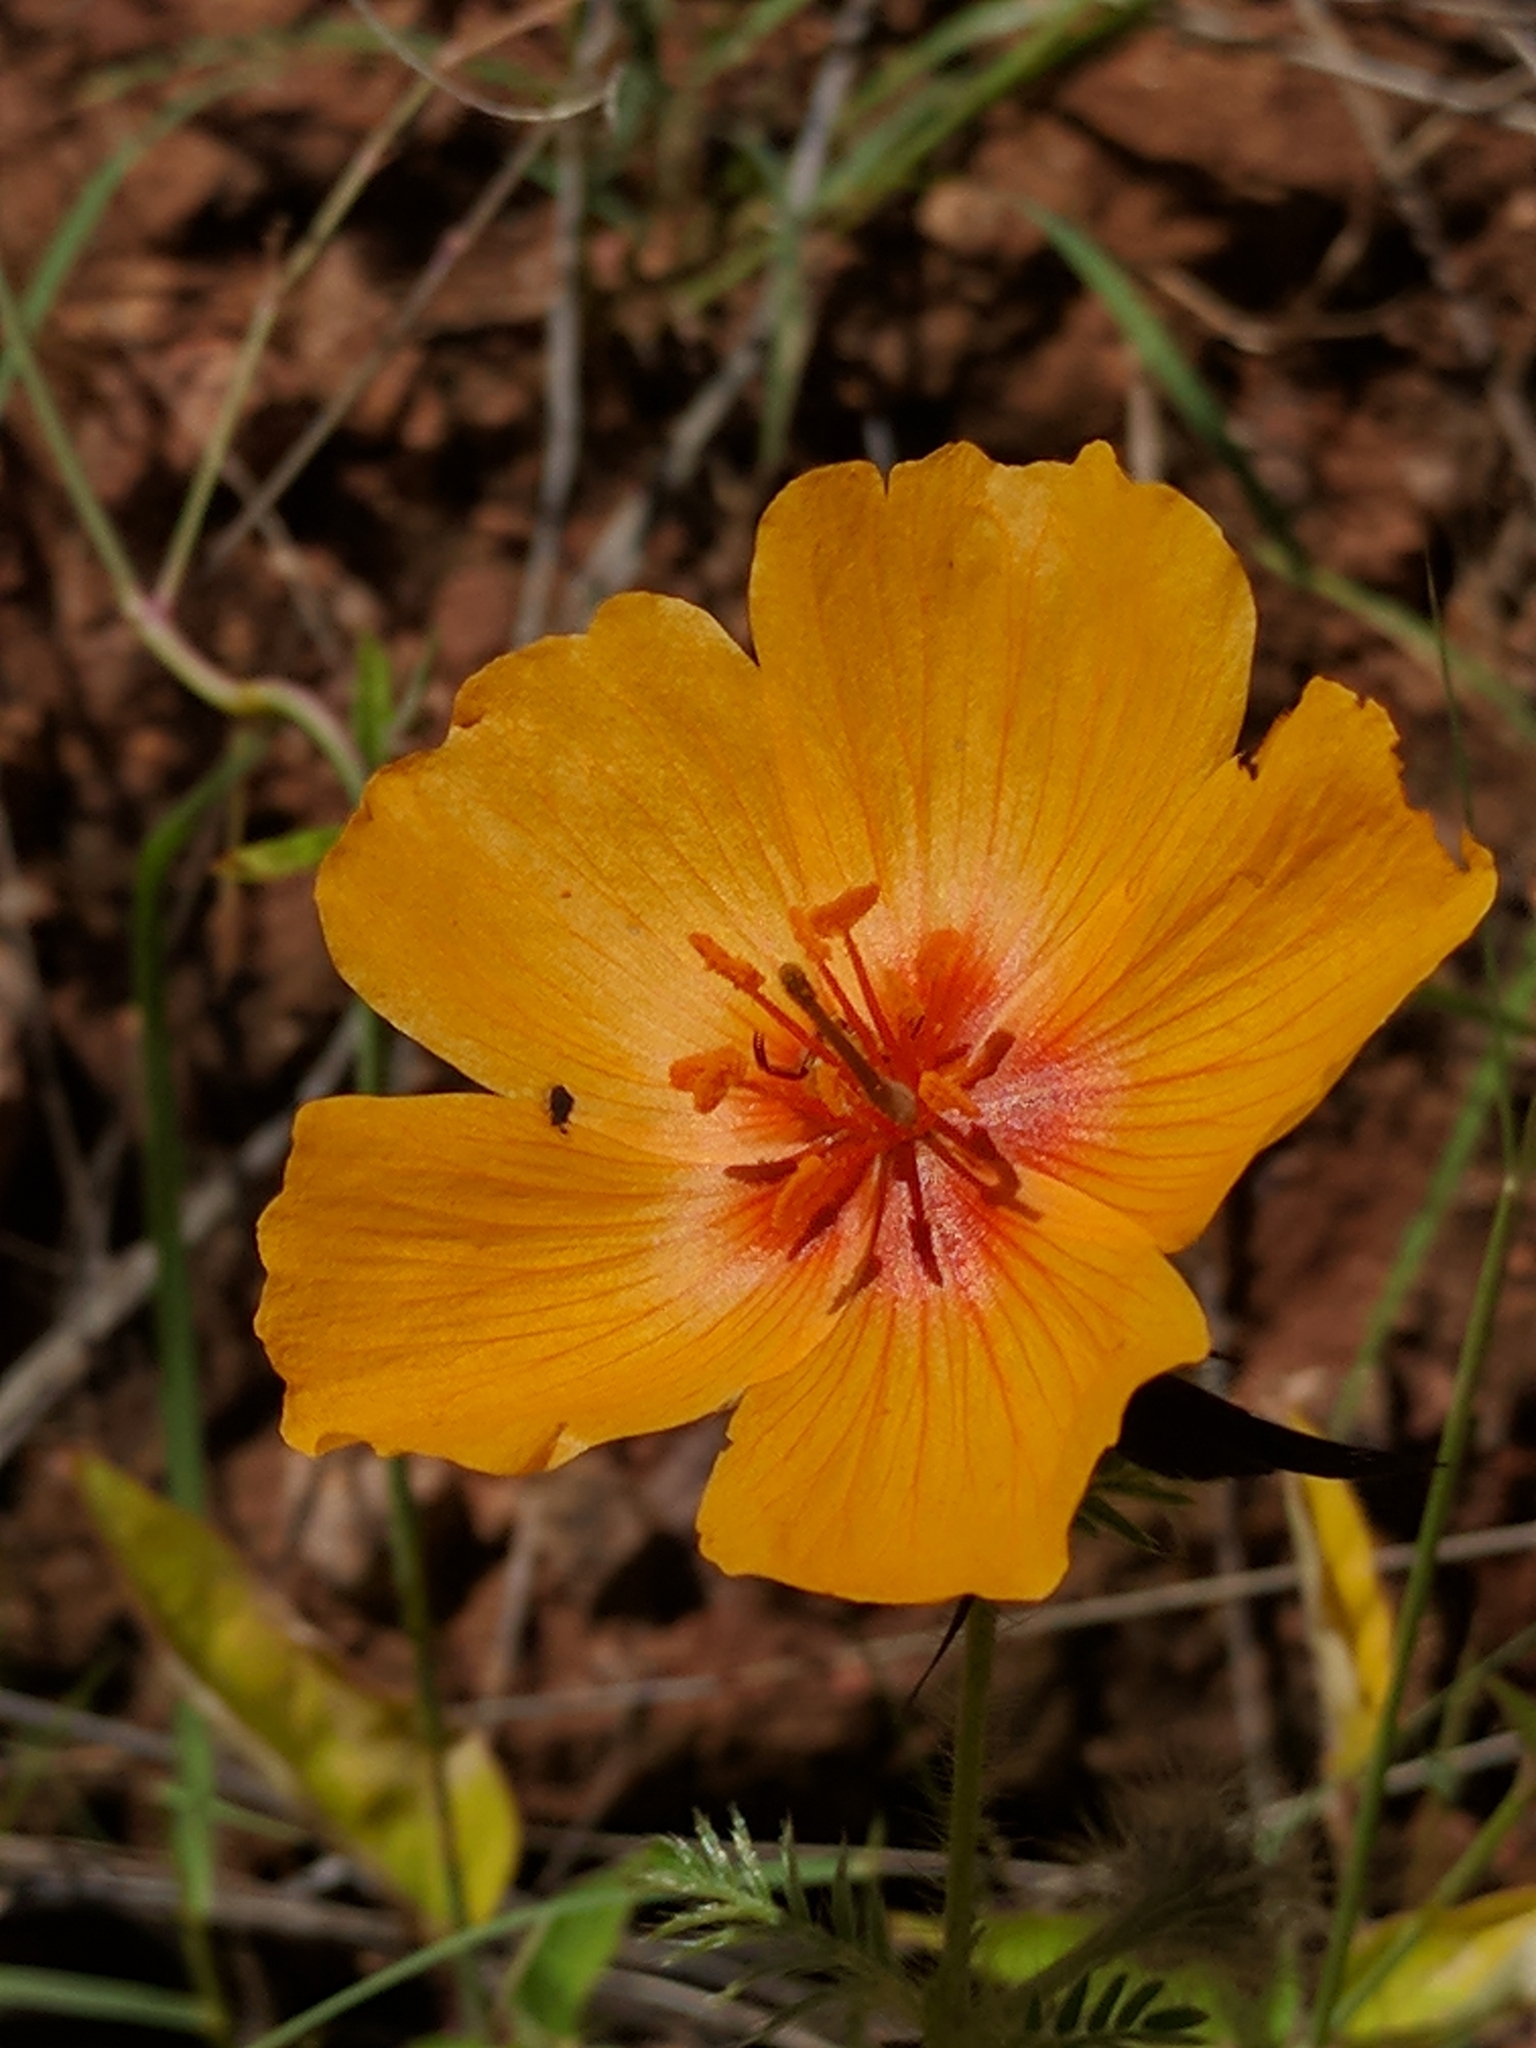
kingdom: Plantae
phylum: Tracheophyta
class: Magnoliopsida
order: Zygophyllales
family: Zygophyllaceae
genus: Kallstroemia
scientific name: Kallstroemia grandiflora
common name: Arizona-poppy
